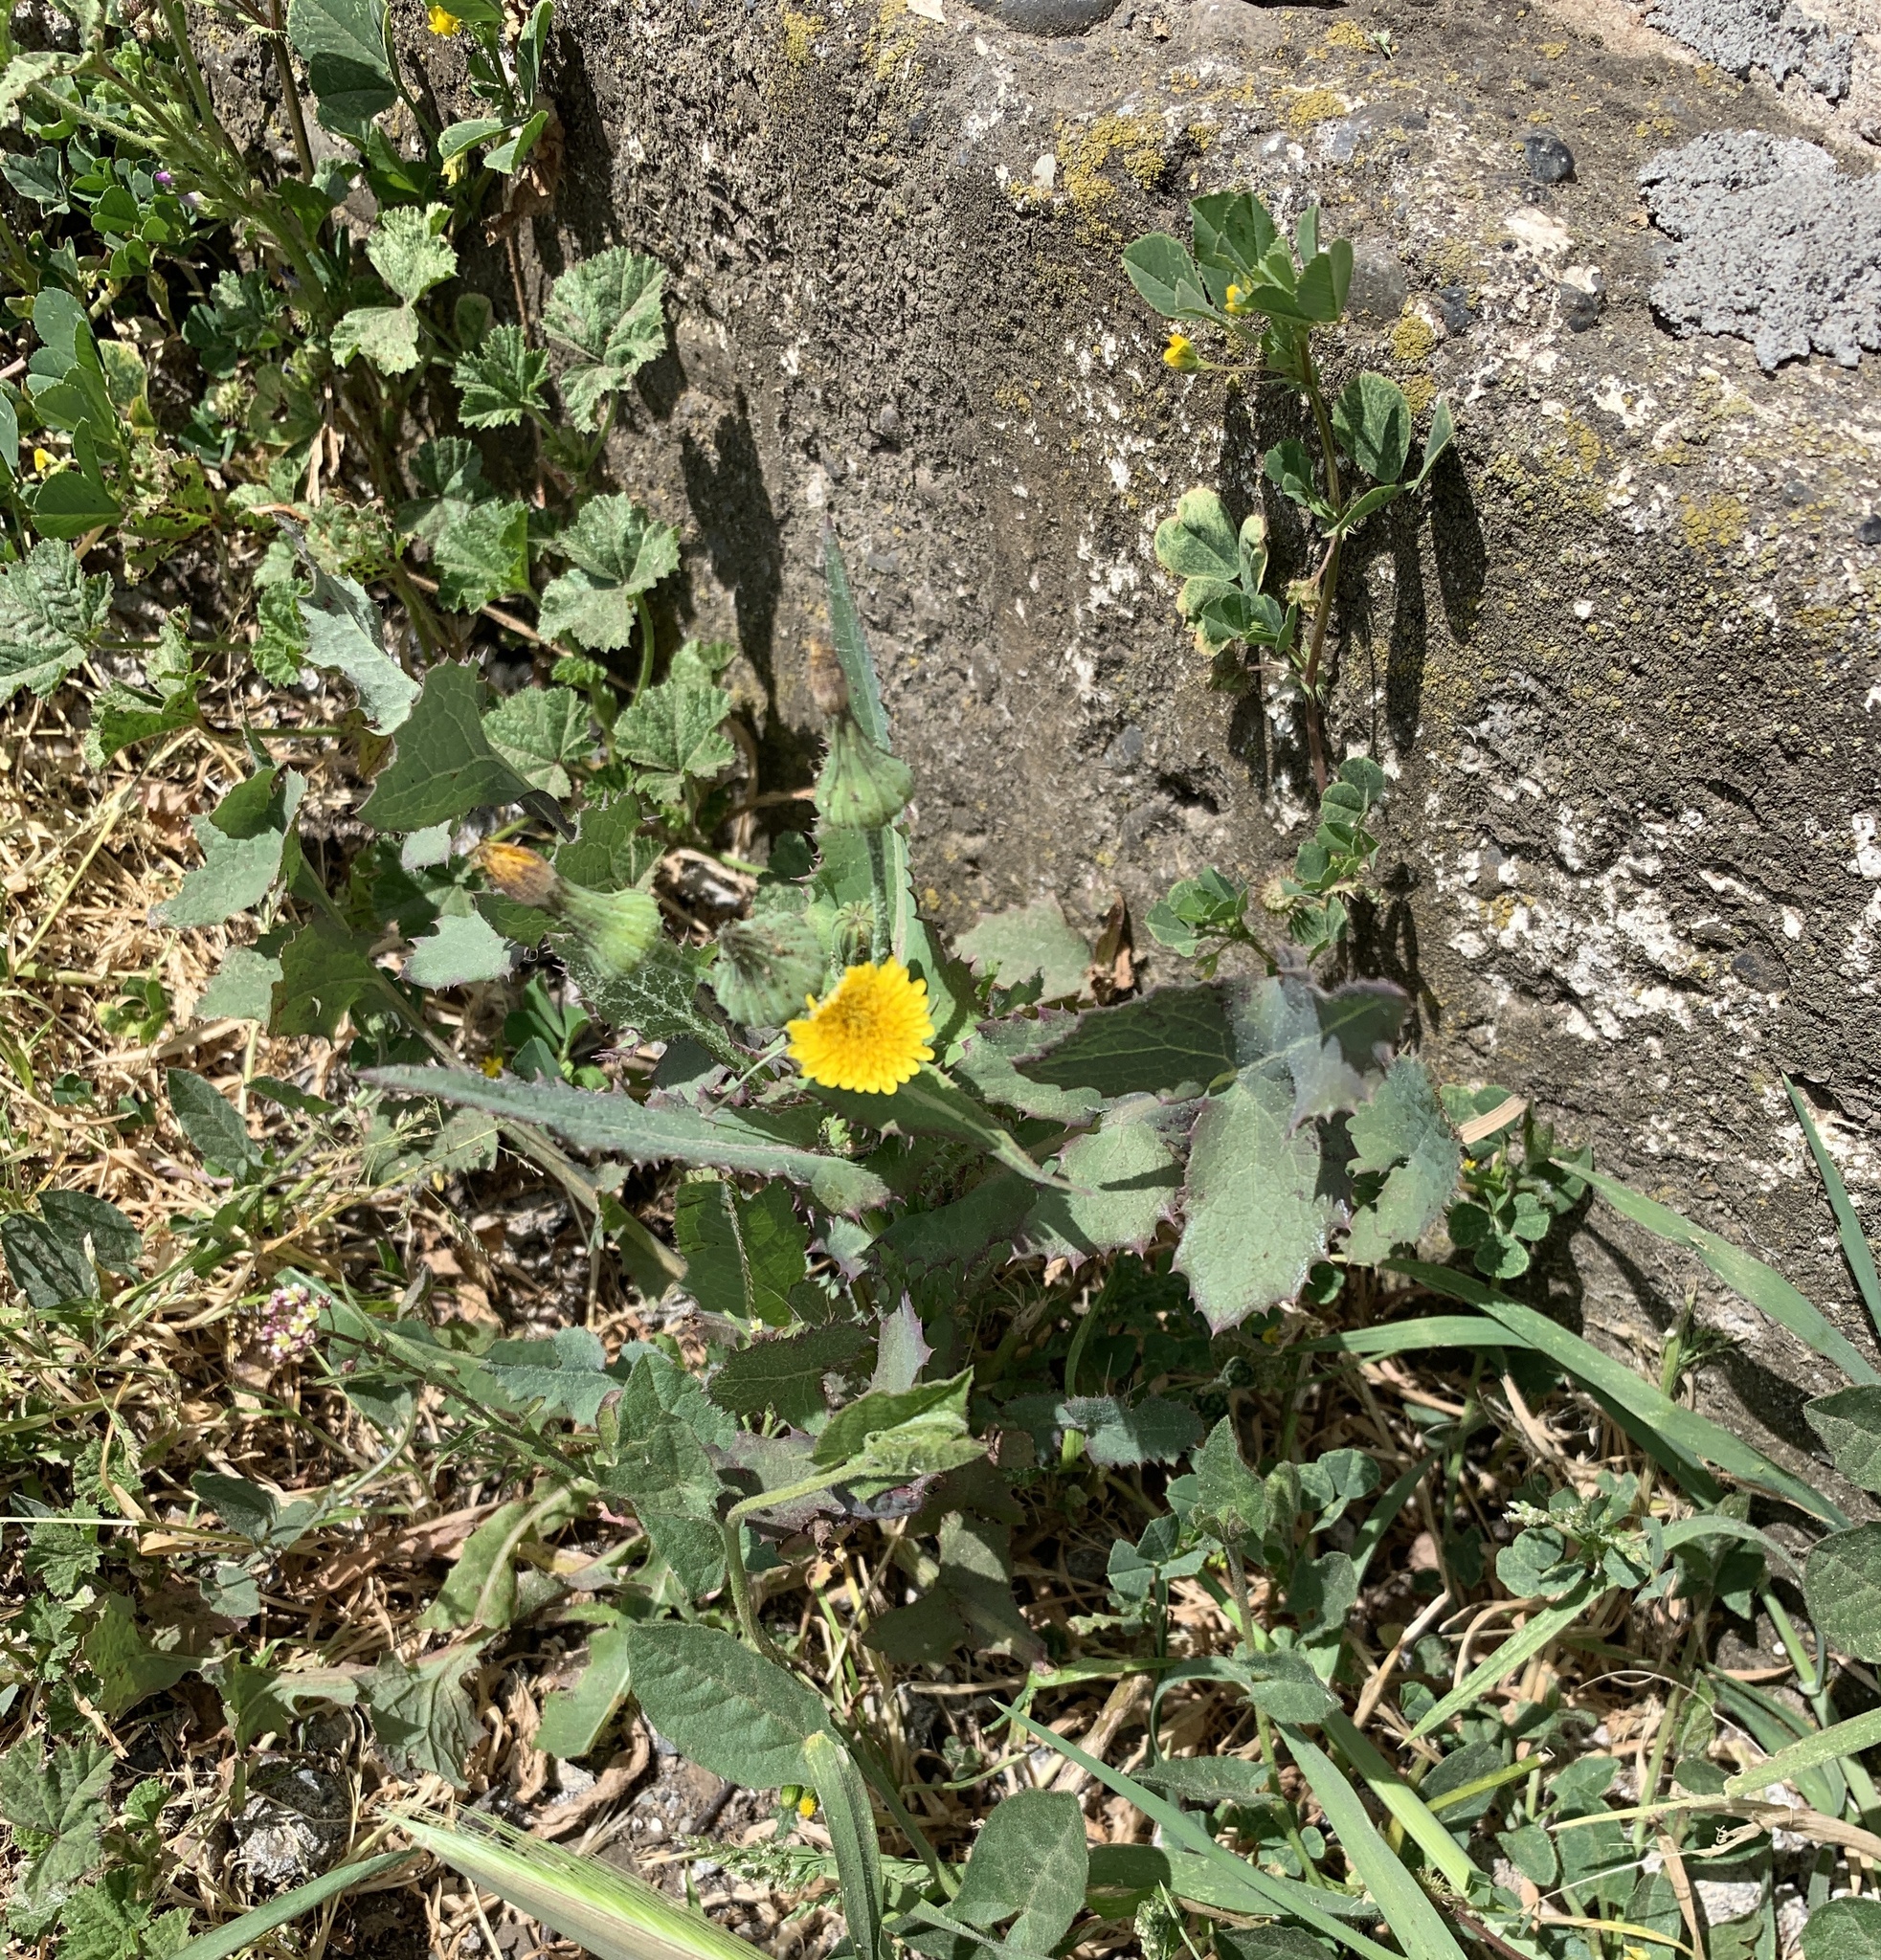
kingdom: Plantae
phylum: Tracheophyta
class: Magnoliopsida
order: Asterales
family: Asteraceae
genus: Sonchus
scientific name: Sonchus oleraceus
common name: Common sowthistle
